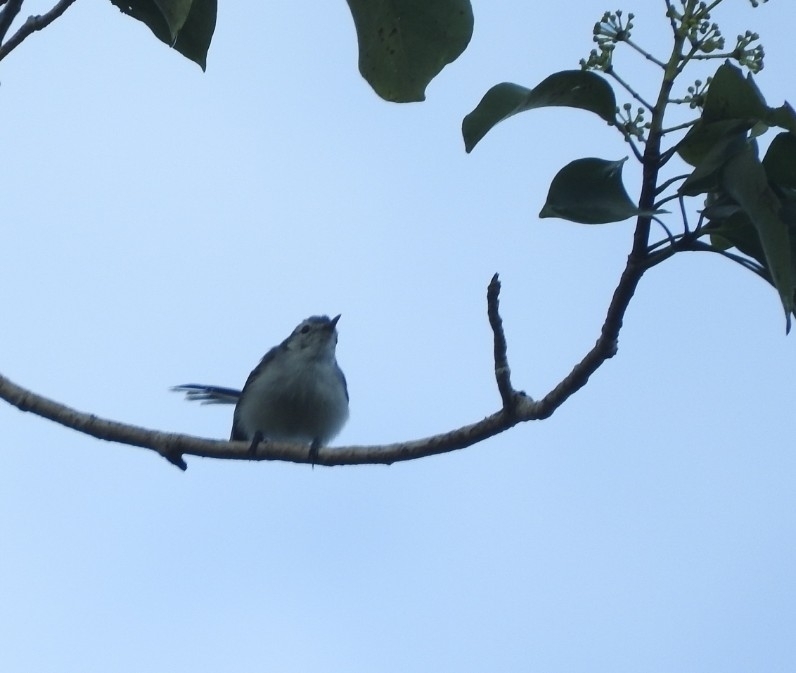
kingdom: Animalia
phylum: Chordata
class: Aves
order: Passeriformes
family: Polioptilidae
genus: Polioptila
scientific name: Polioptila caerulea
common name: Blue-gray gnatcatcher
